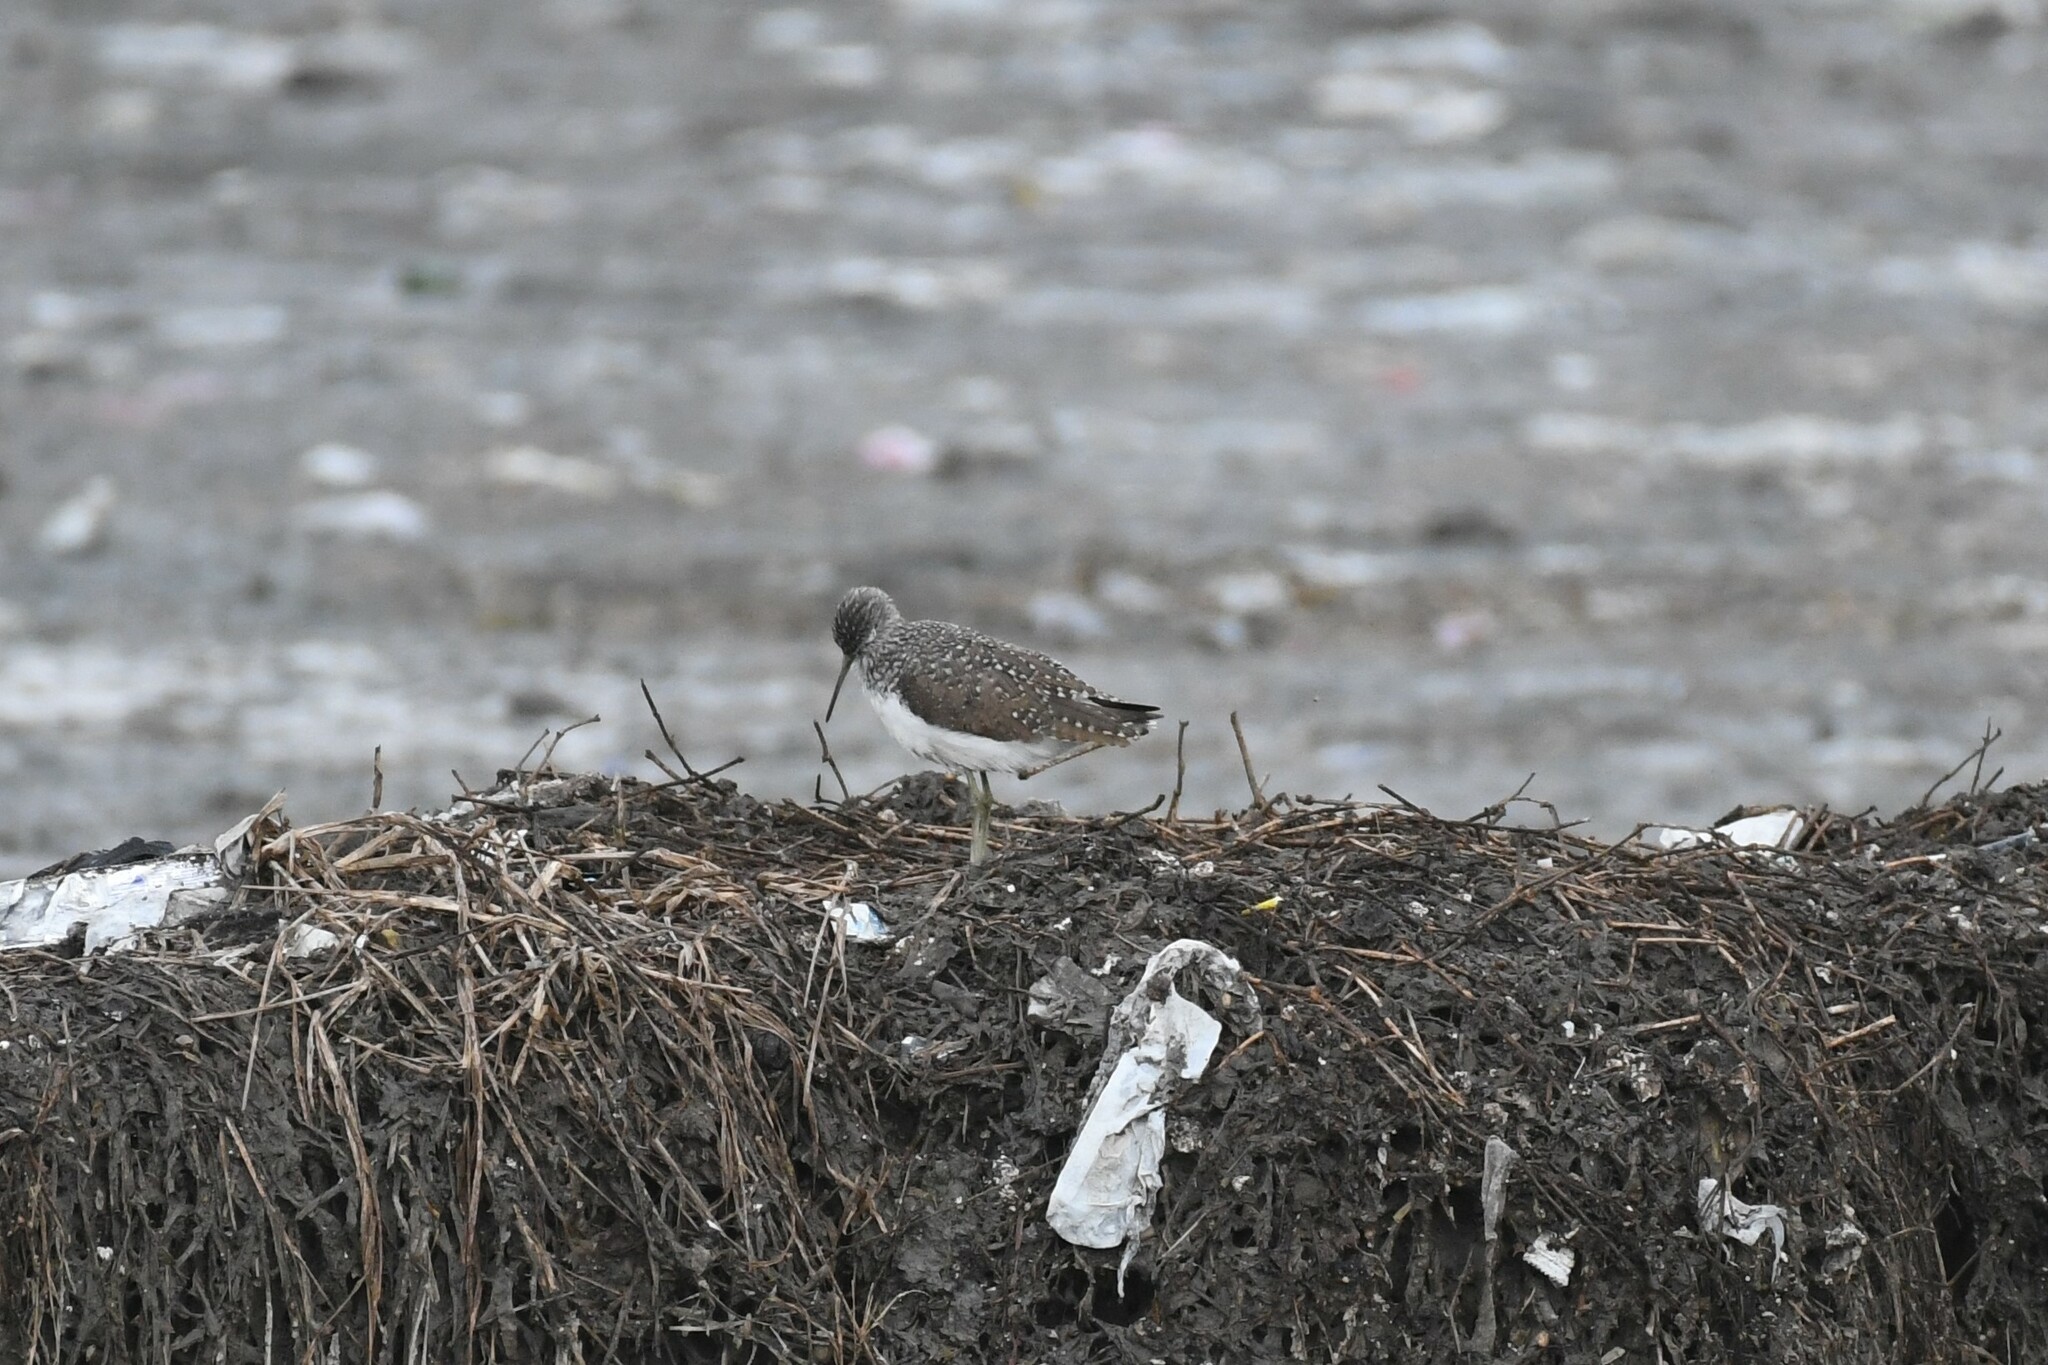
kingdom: Animalia
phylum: Chordata
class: Aves
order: Charadriiformes
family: Scolopacidae
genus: Tringa
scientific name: Tringa ochropus
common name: Green sandpiper
